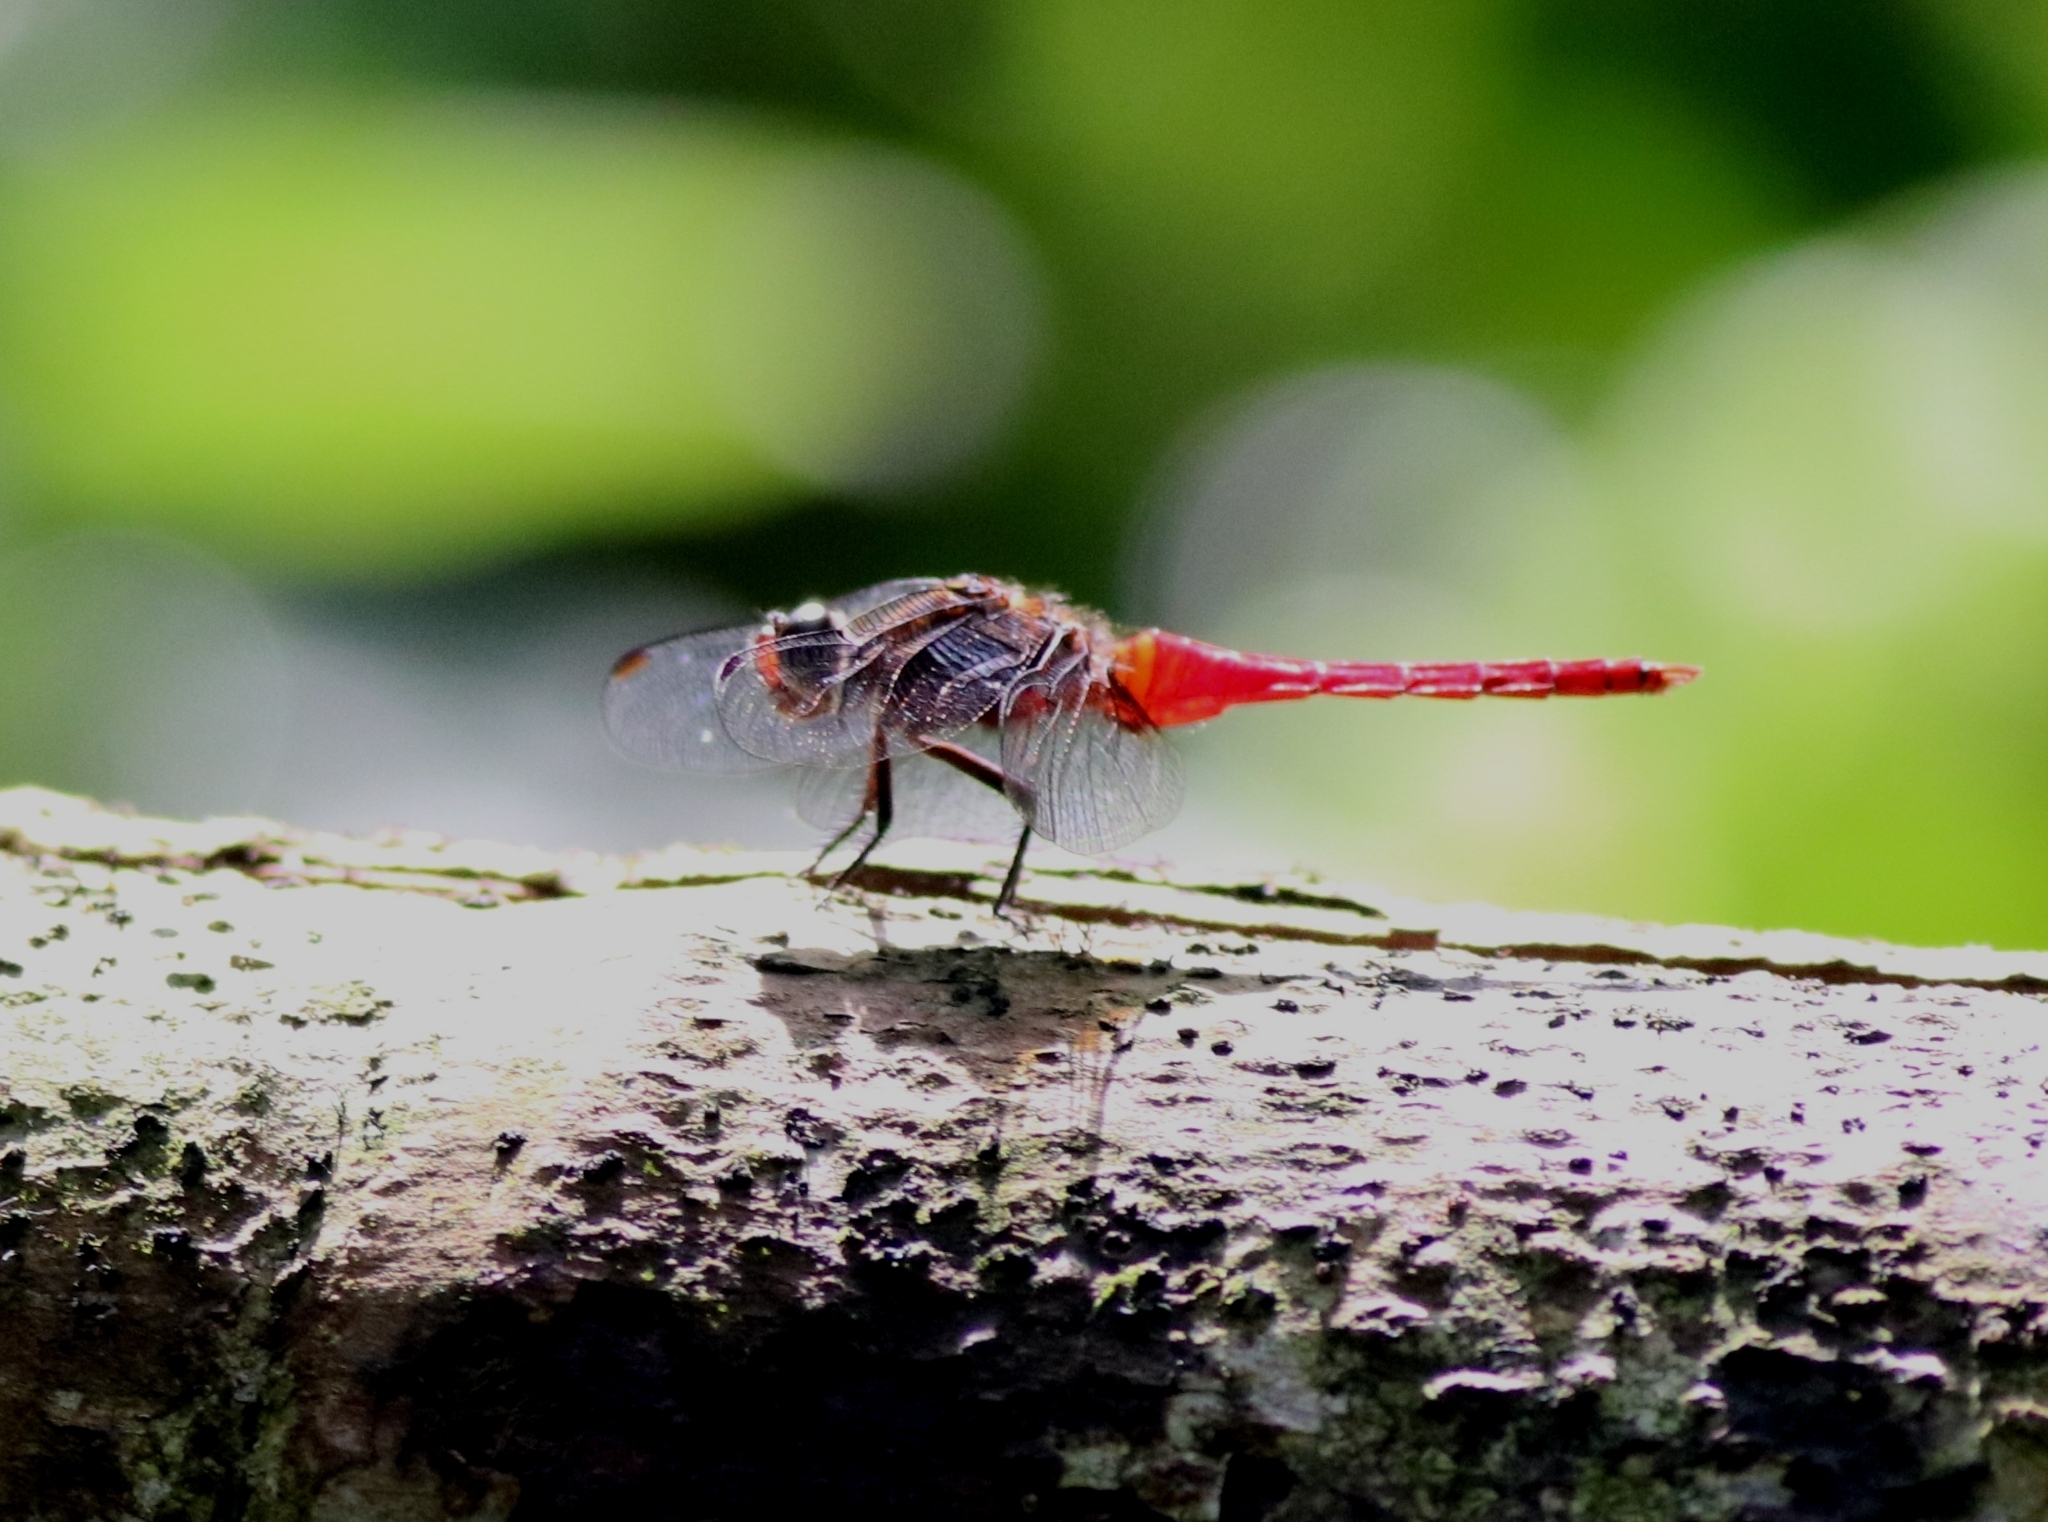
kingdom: Animalia
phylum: Arthropoda
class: Insecta
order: Odonata
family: Libellulidae
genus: Orthetrum
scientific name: Orthetrum chrysis
